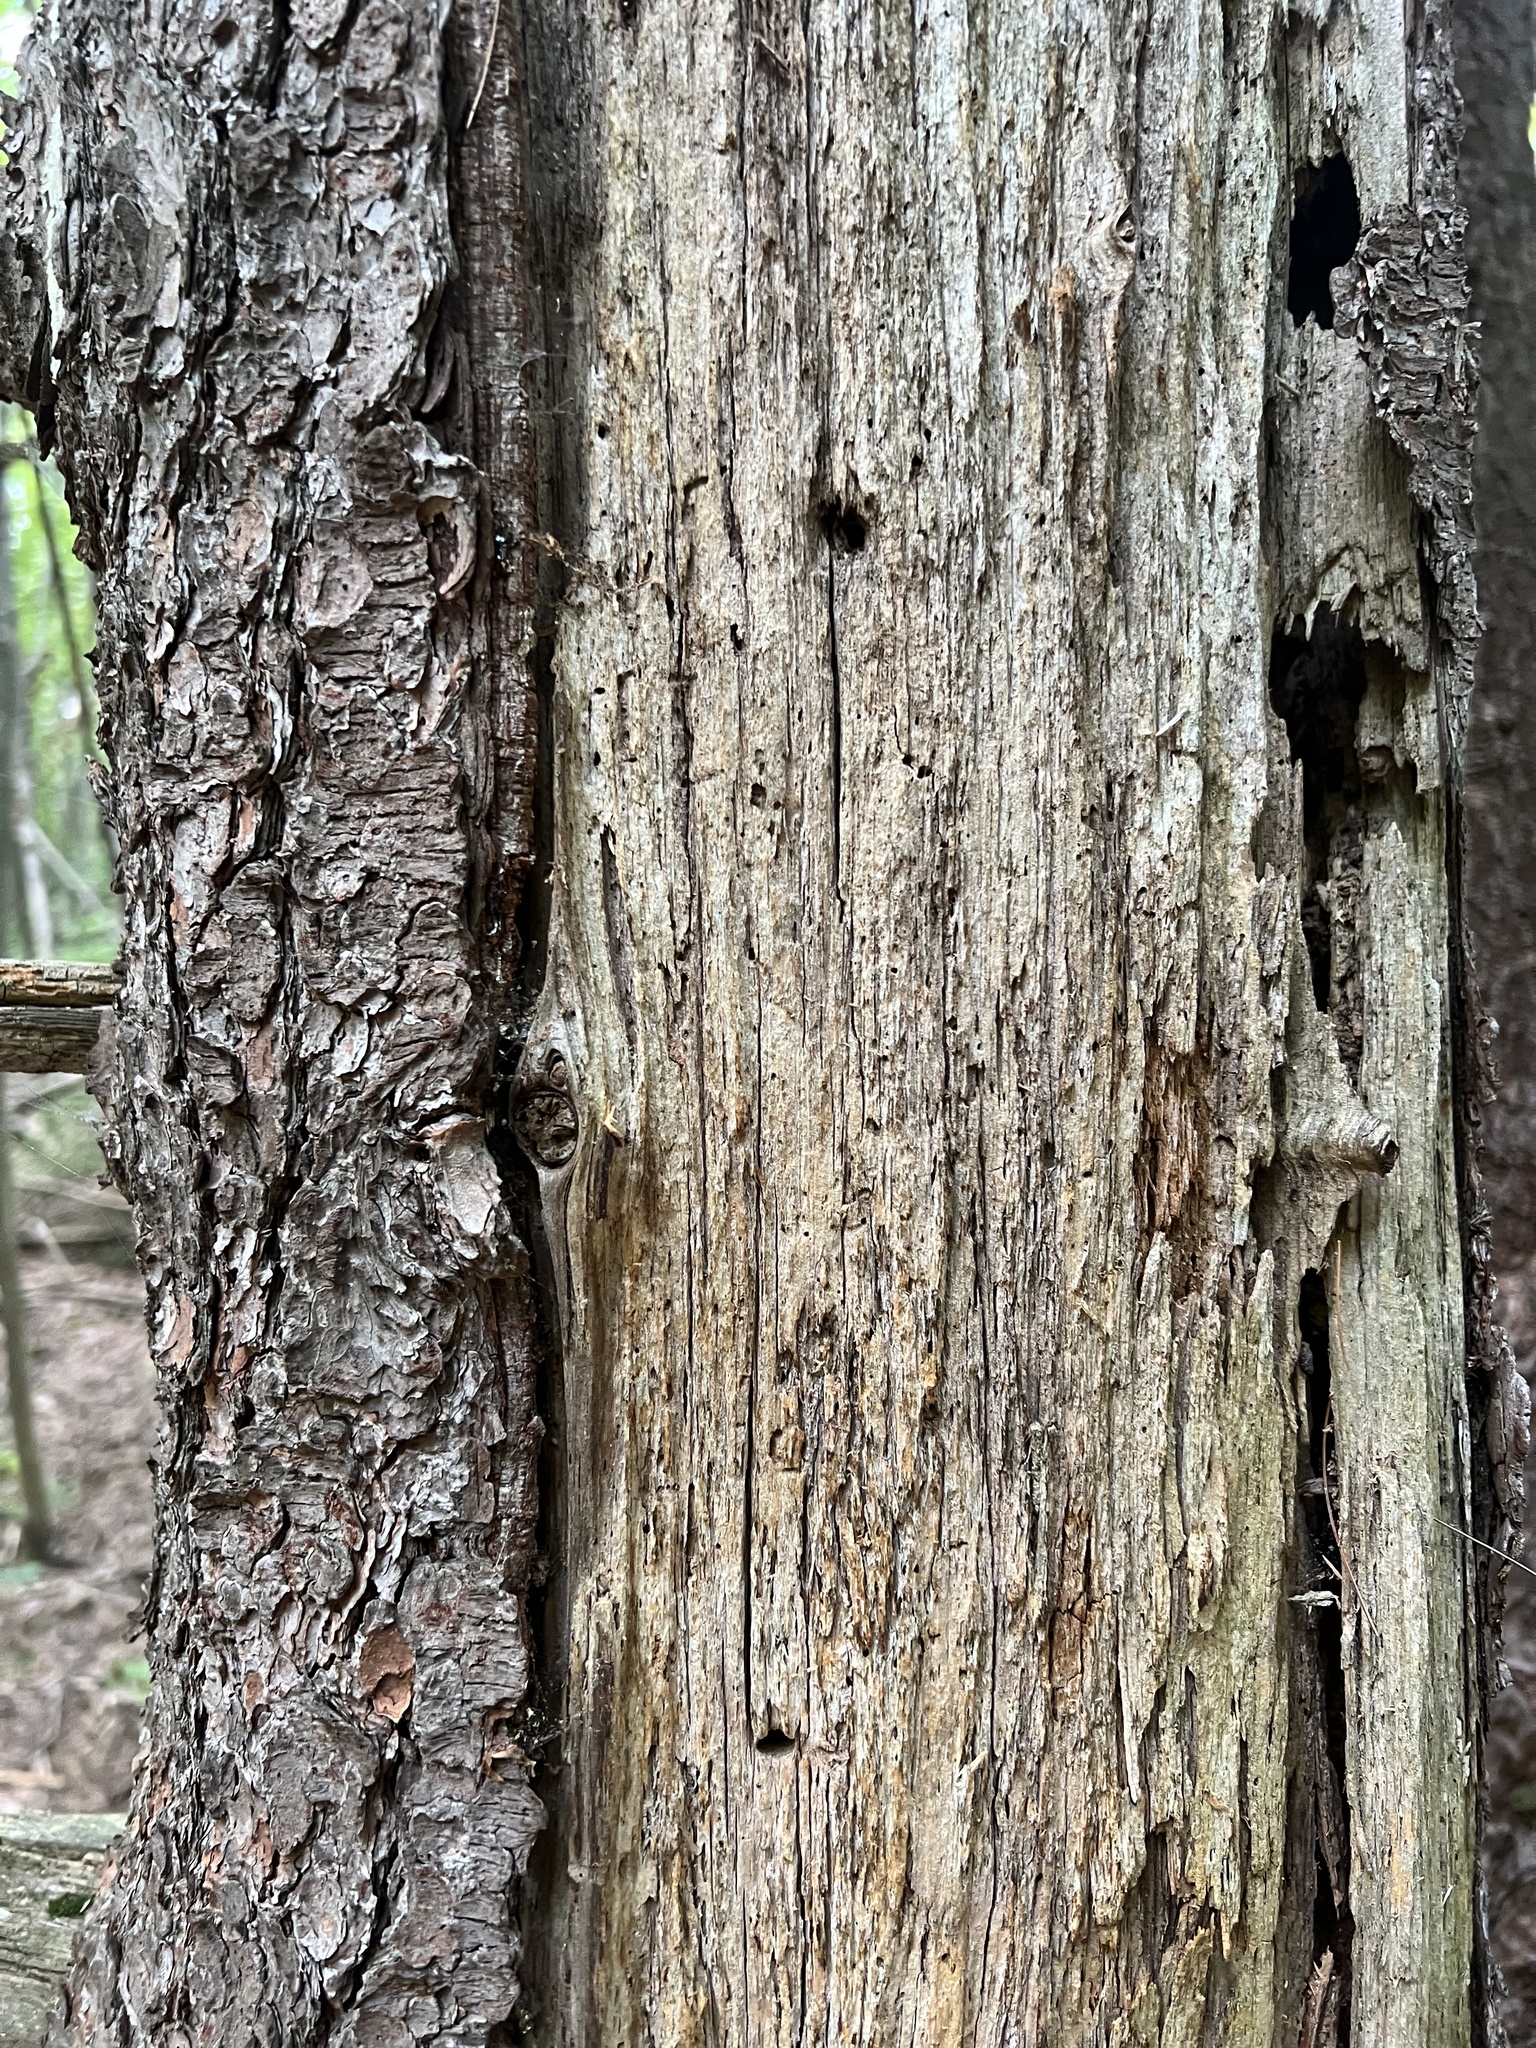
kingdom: Plantae
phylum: Tracheophyta
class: Pinopsida
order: Pinales
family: Pinaceae
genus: Pinus
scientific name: Pinus strobus
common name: Weymouth pine
